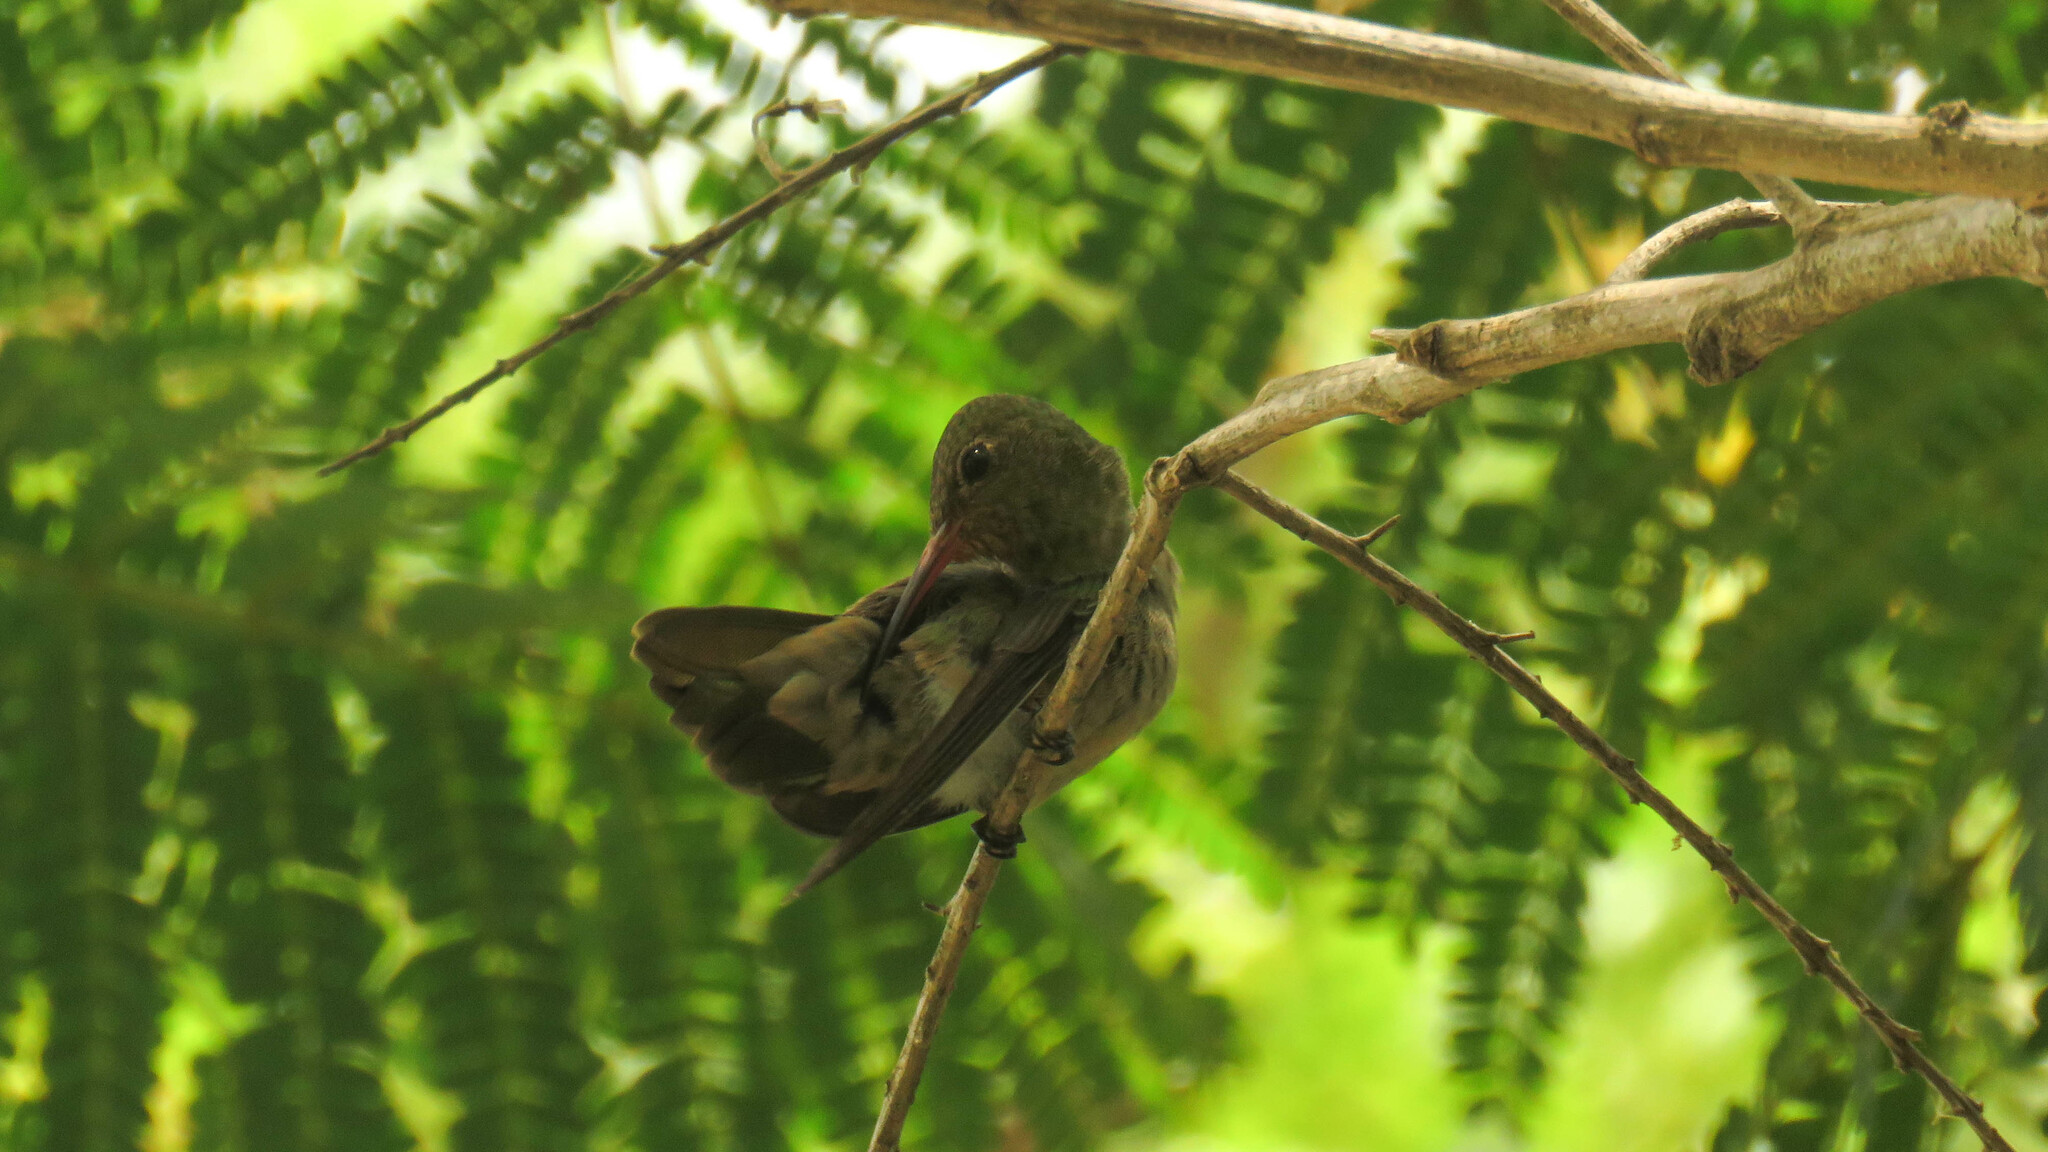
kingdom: Animalia
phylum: Chordata
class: Aves
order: Apodiformes
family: Trochilidae
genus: Hylocharis
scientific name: Hylocharis chrysura
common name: Gilded sapphire
